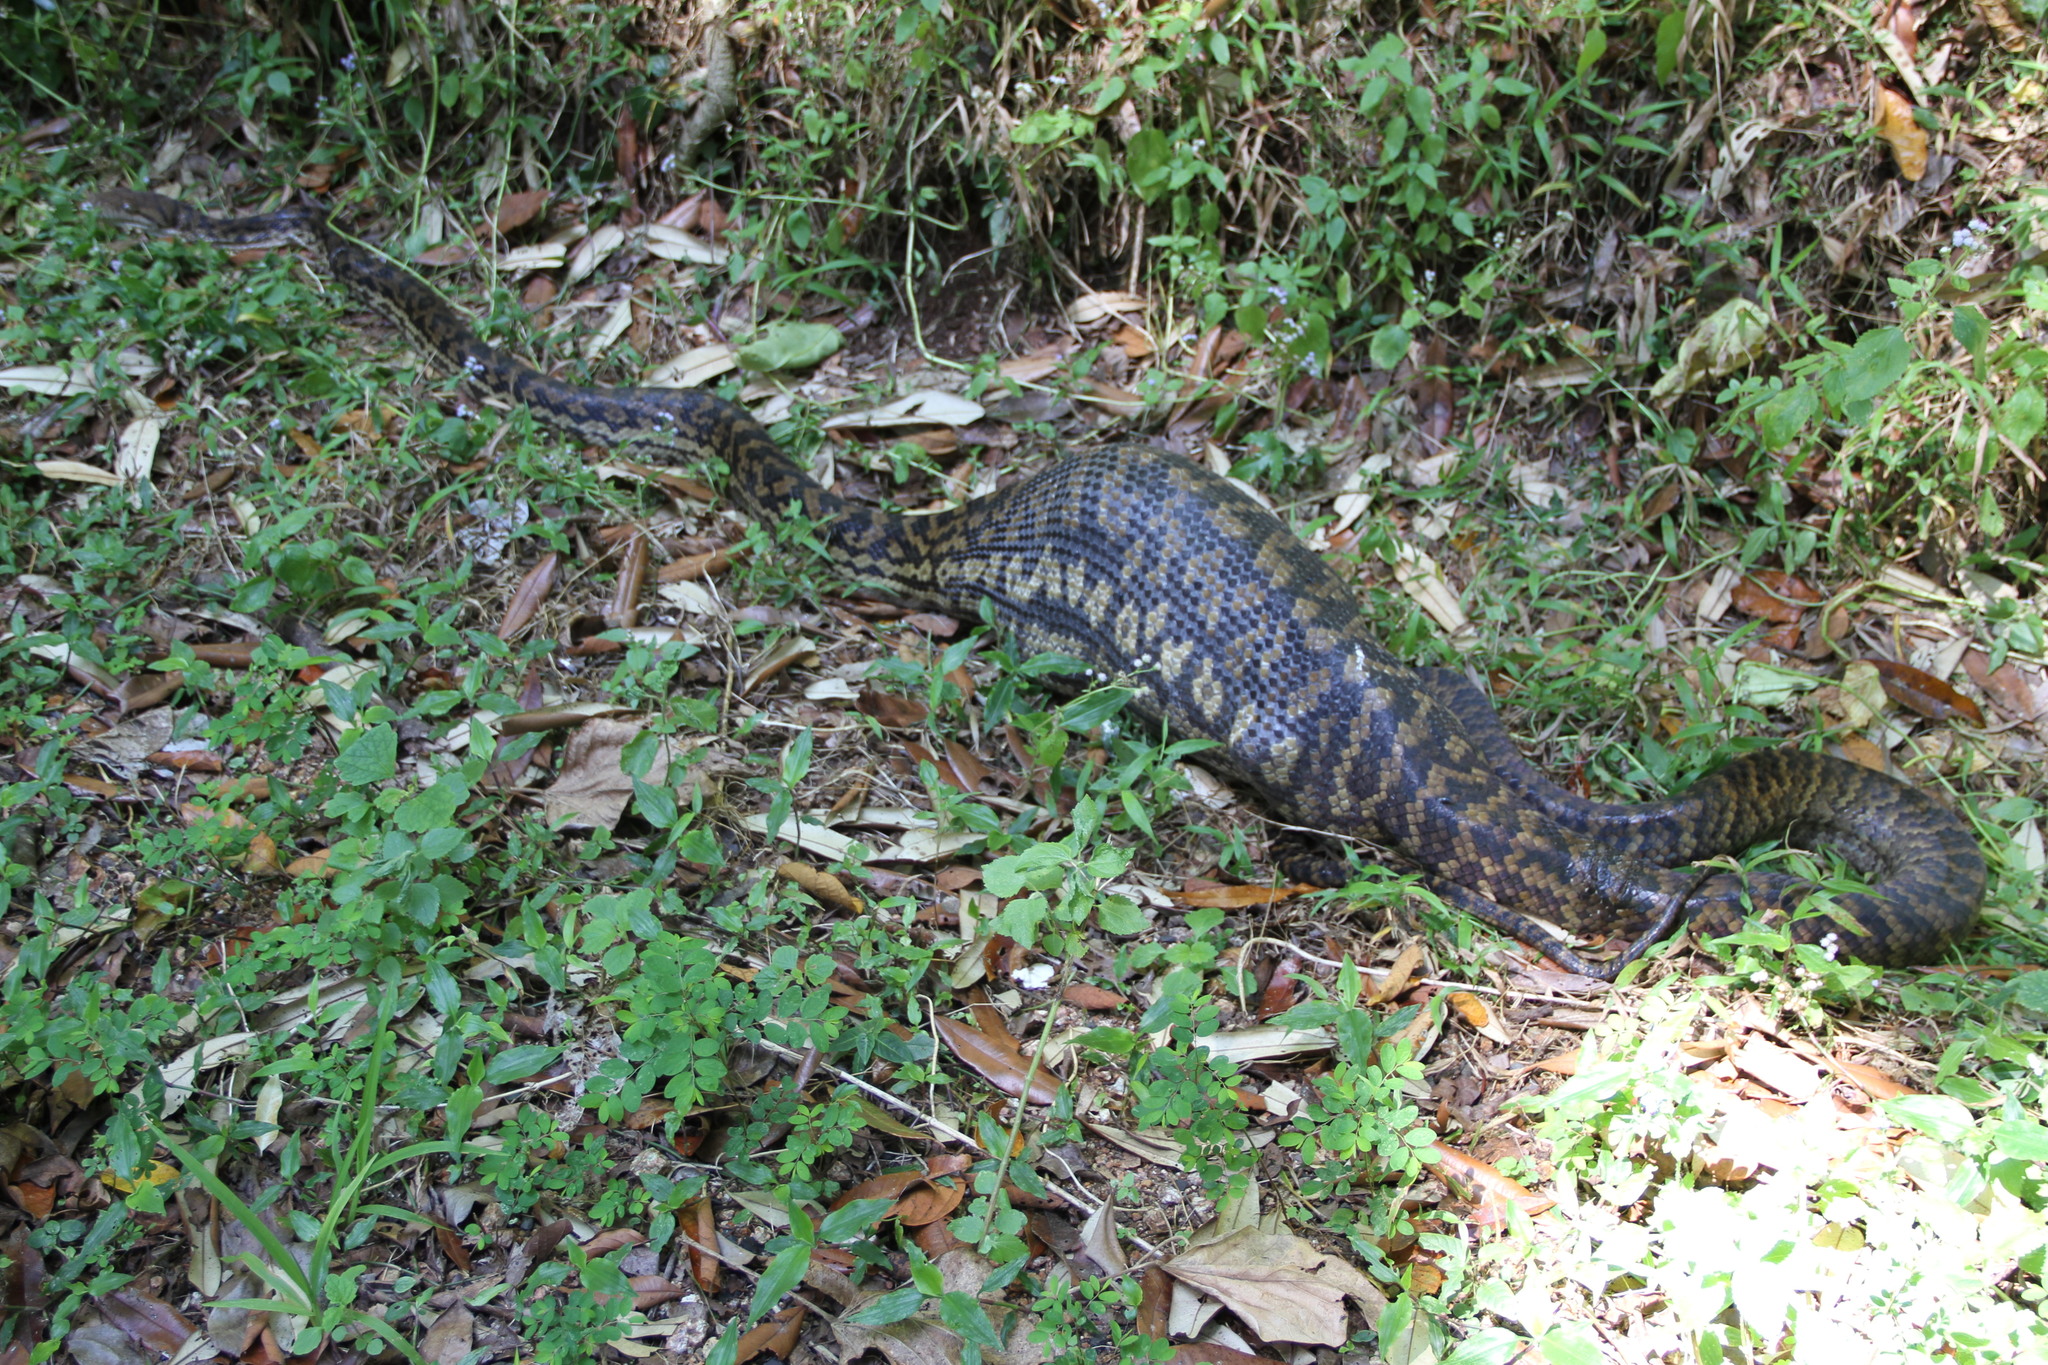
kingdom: Animalia
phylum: Chordata
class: Squamata
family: Pythonidae
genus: Simalia
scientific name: Simalia kinghorni
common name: Scrub python
